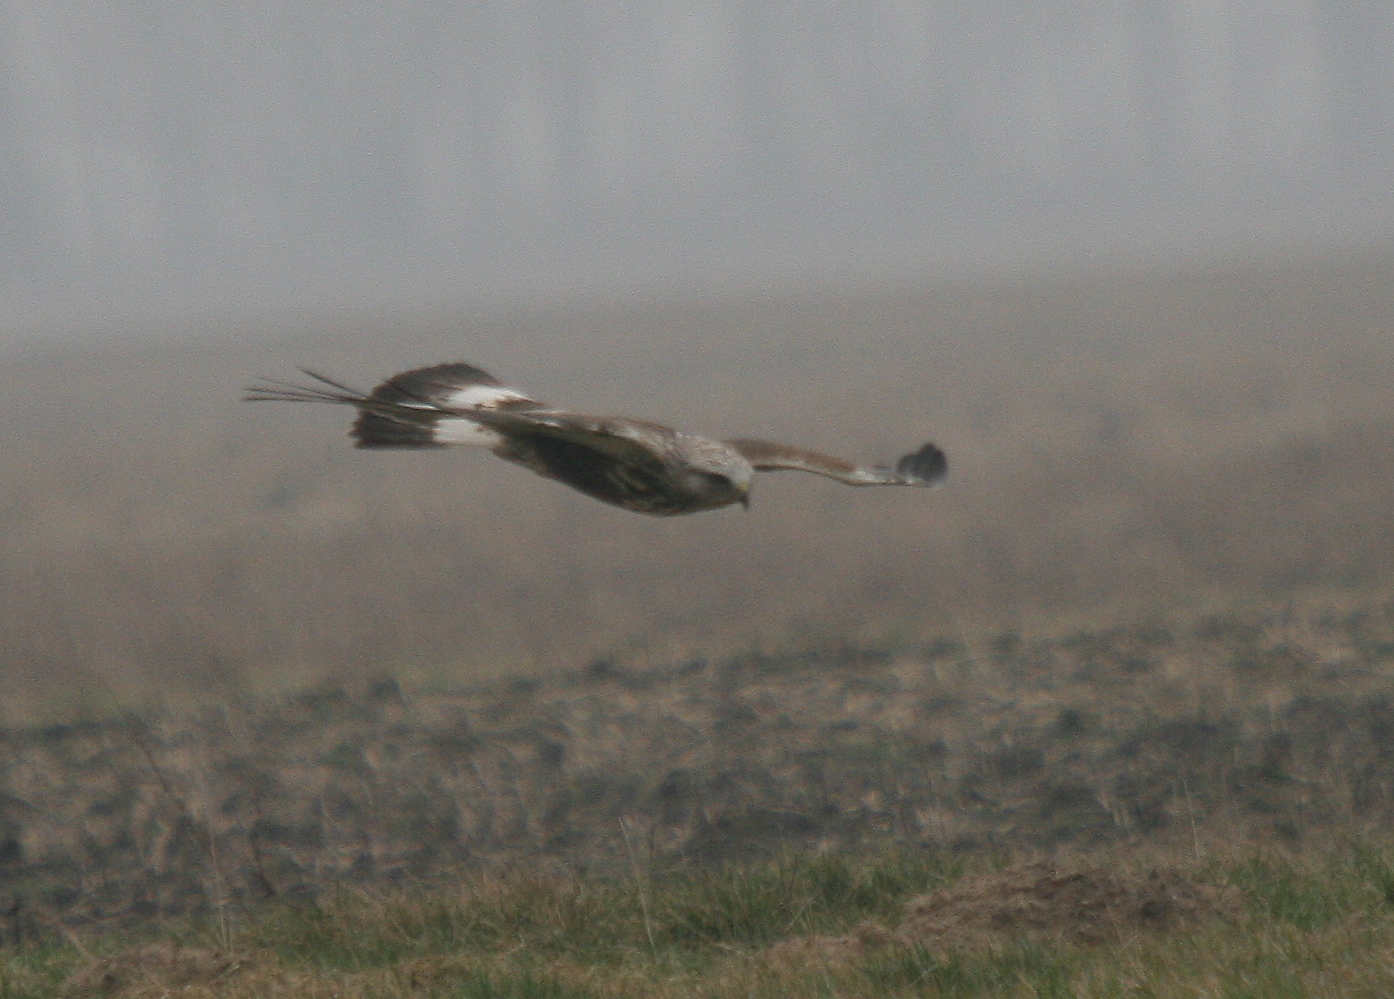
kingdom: Animalia
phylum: Chordata
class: Aves
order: Accipitriformes
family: Accipitridae
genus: Buteo
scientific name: Buteo lagopus
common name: Rough-legged buzzard
